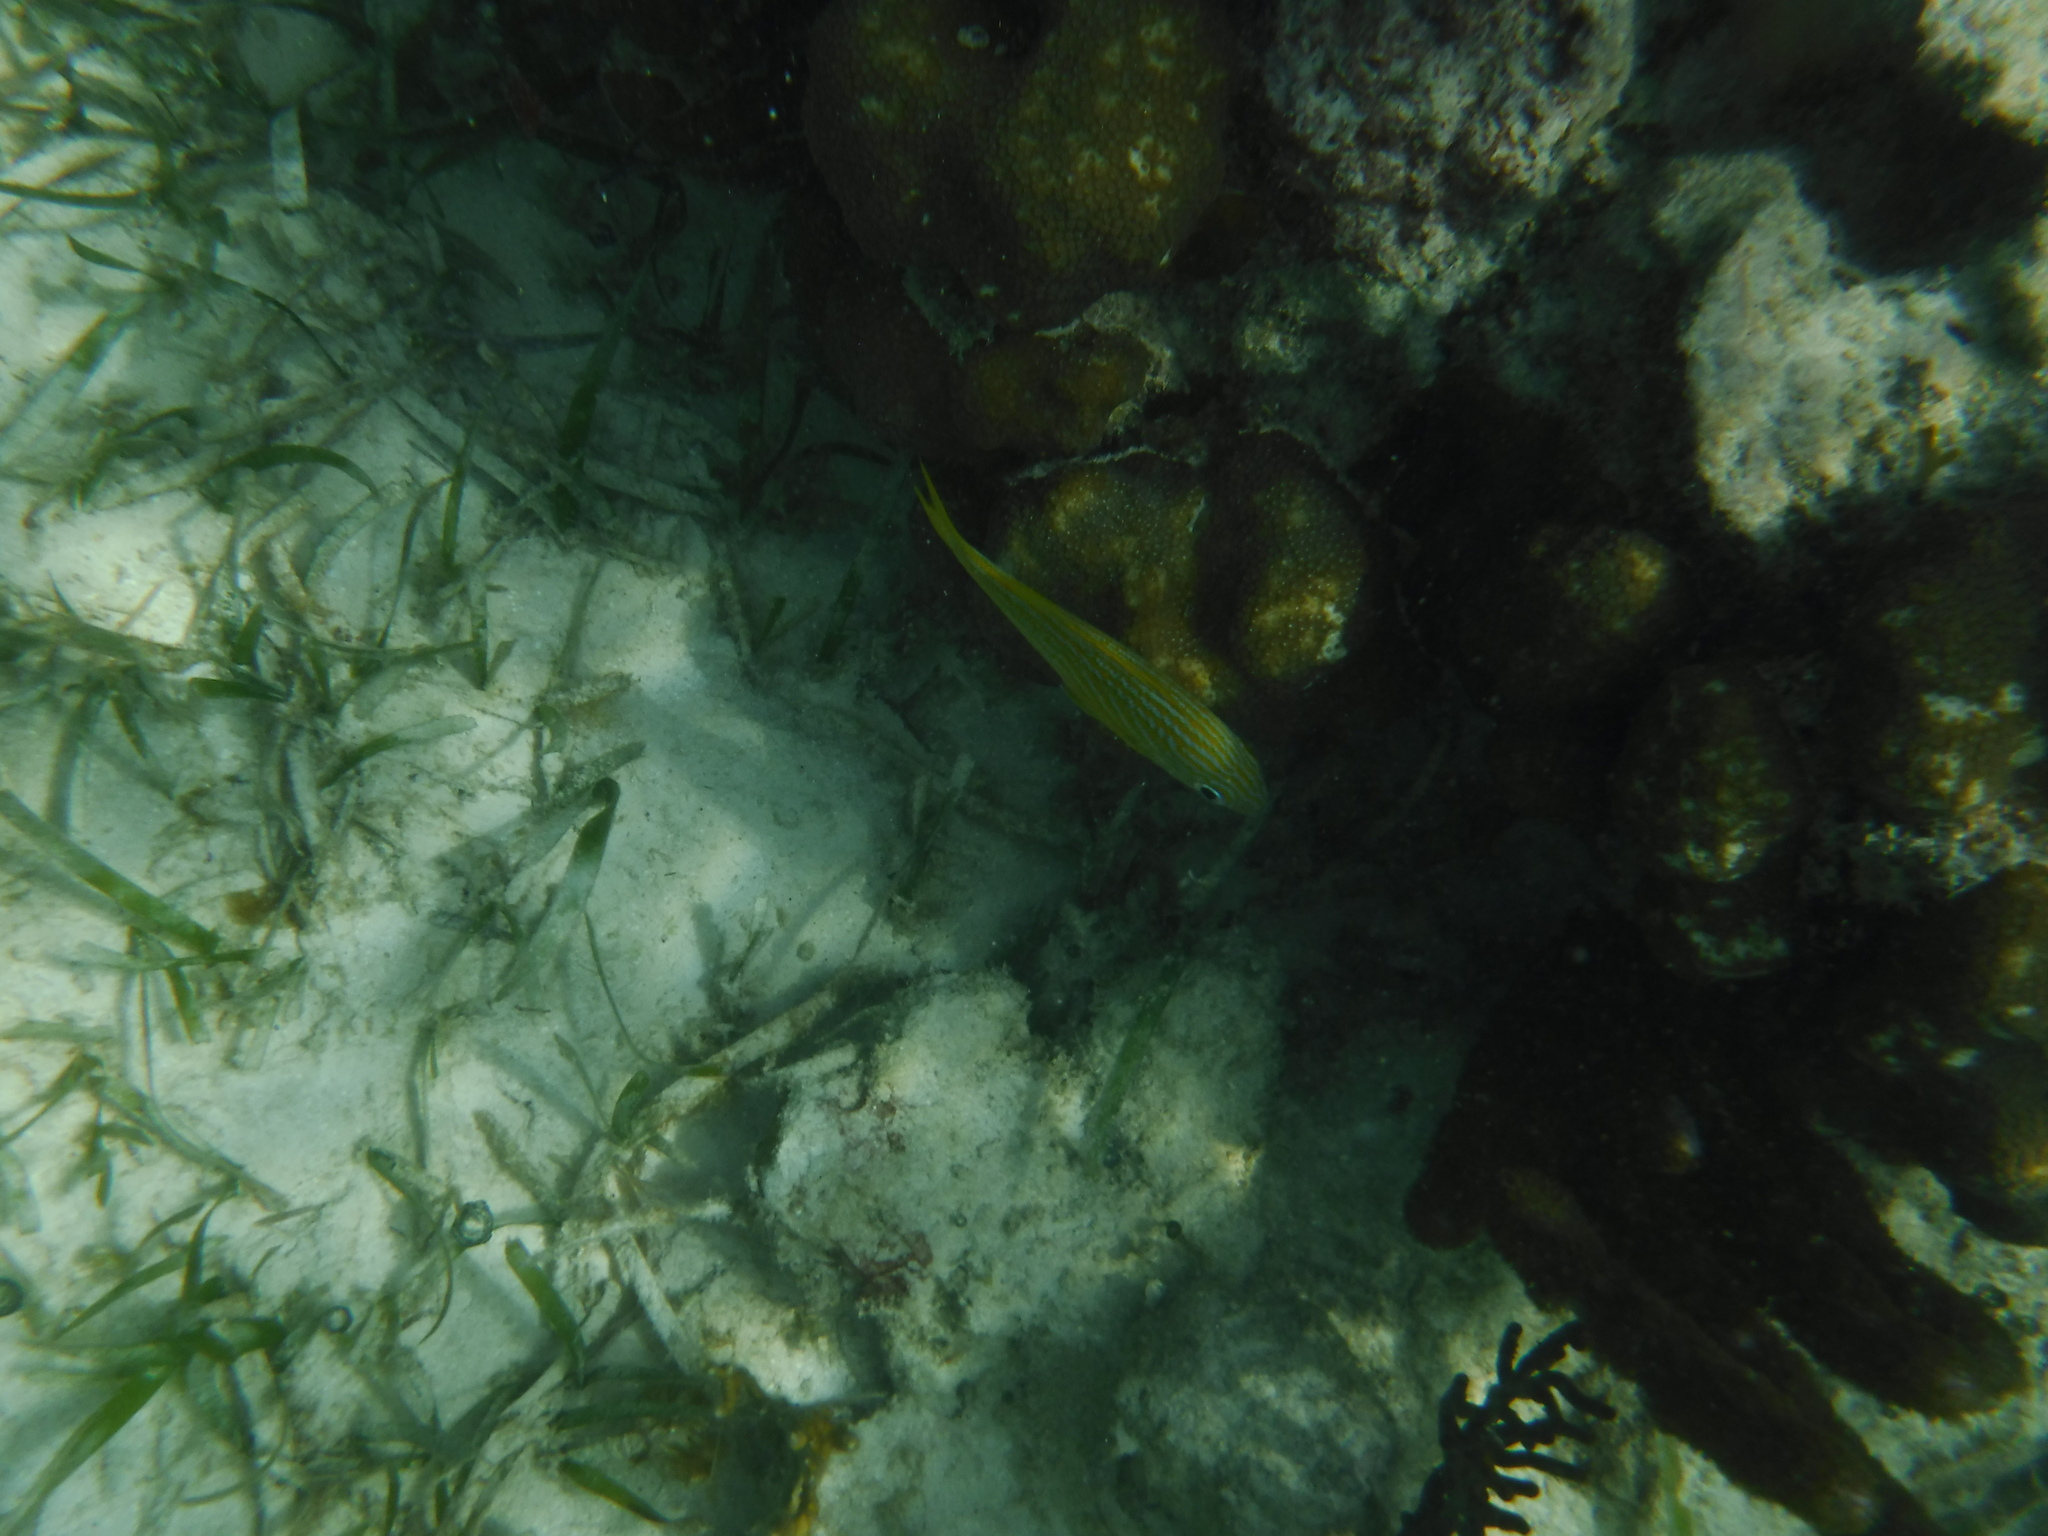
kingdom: Animalia
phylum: Chordata
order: Perciformes
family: Haemulidae
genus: Haemulon
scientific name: Haemulon flavolineatum
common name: French grunt
